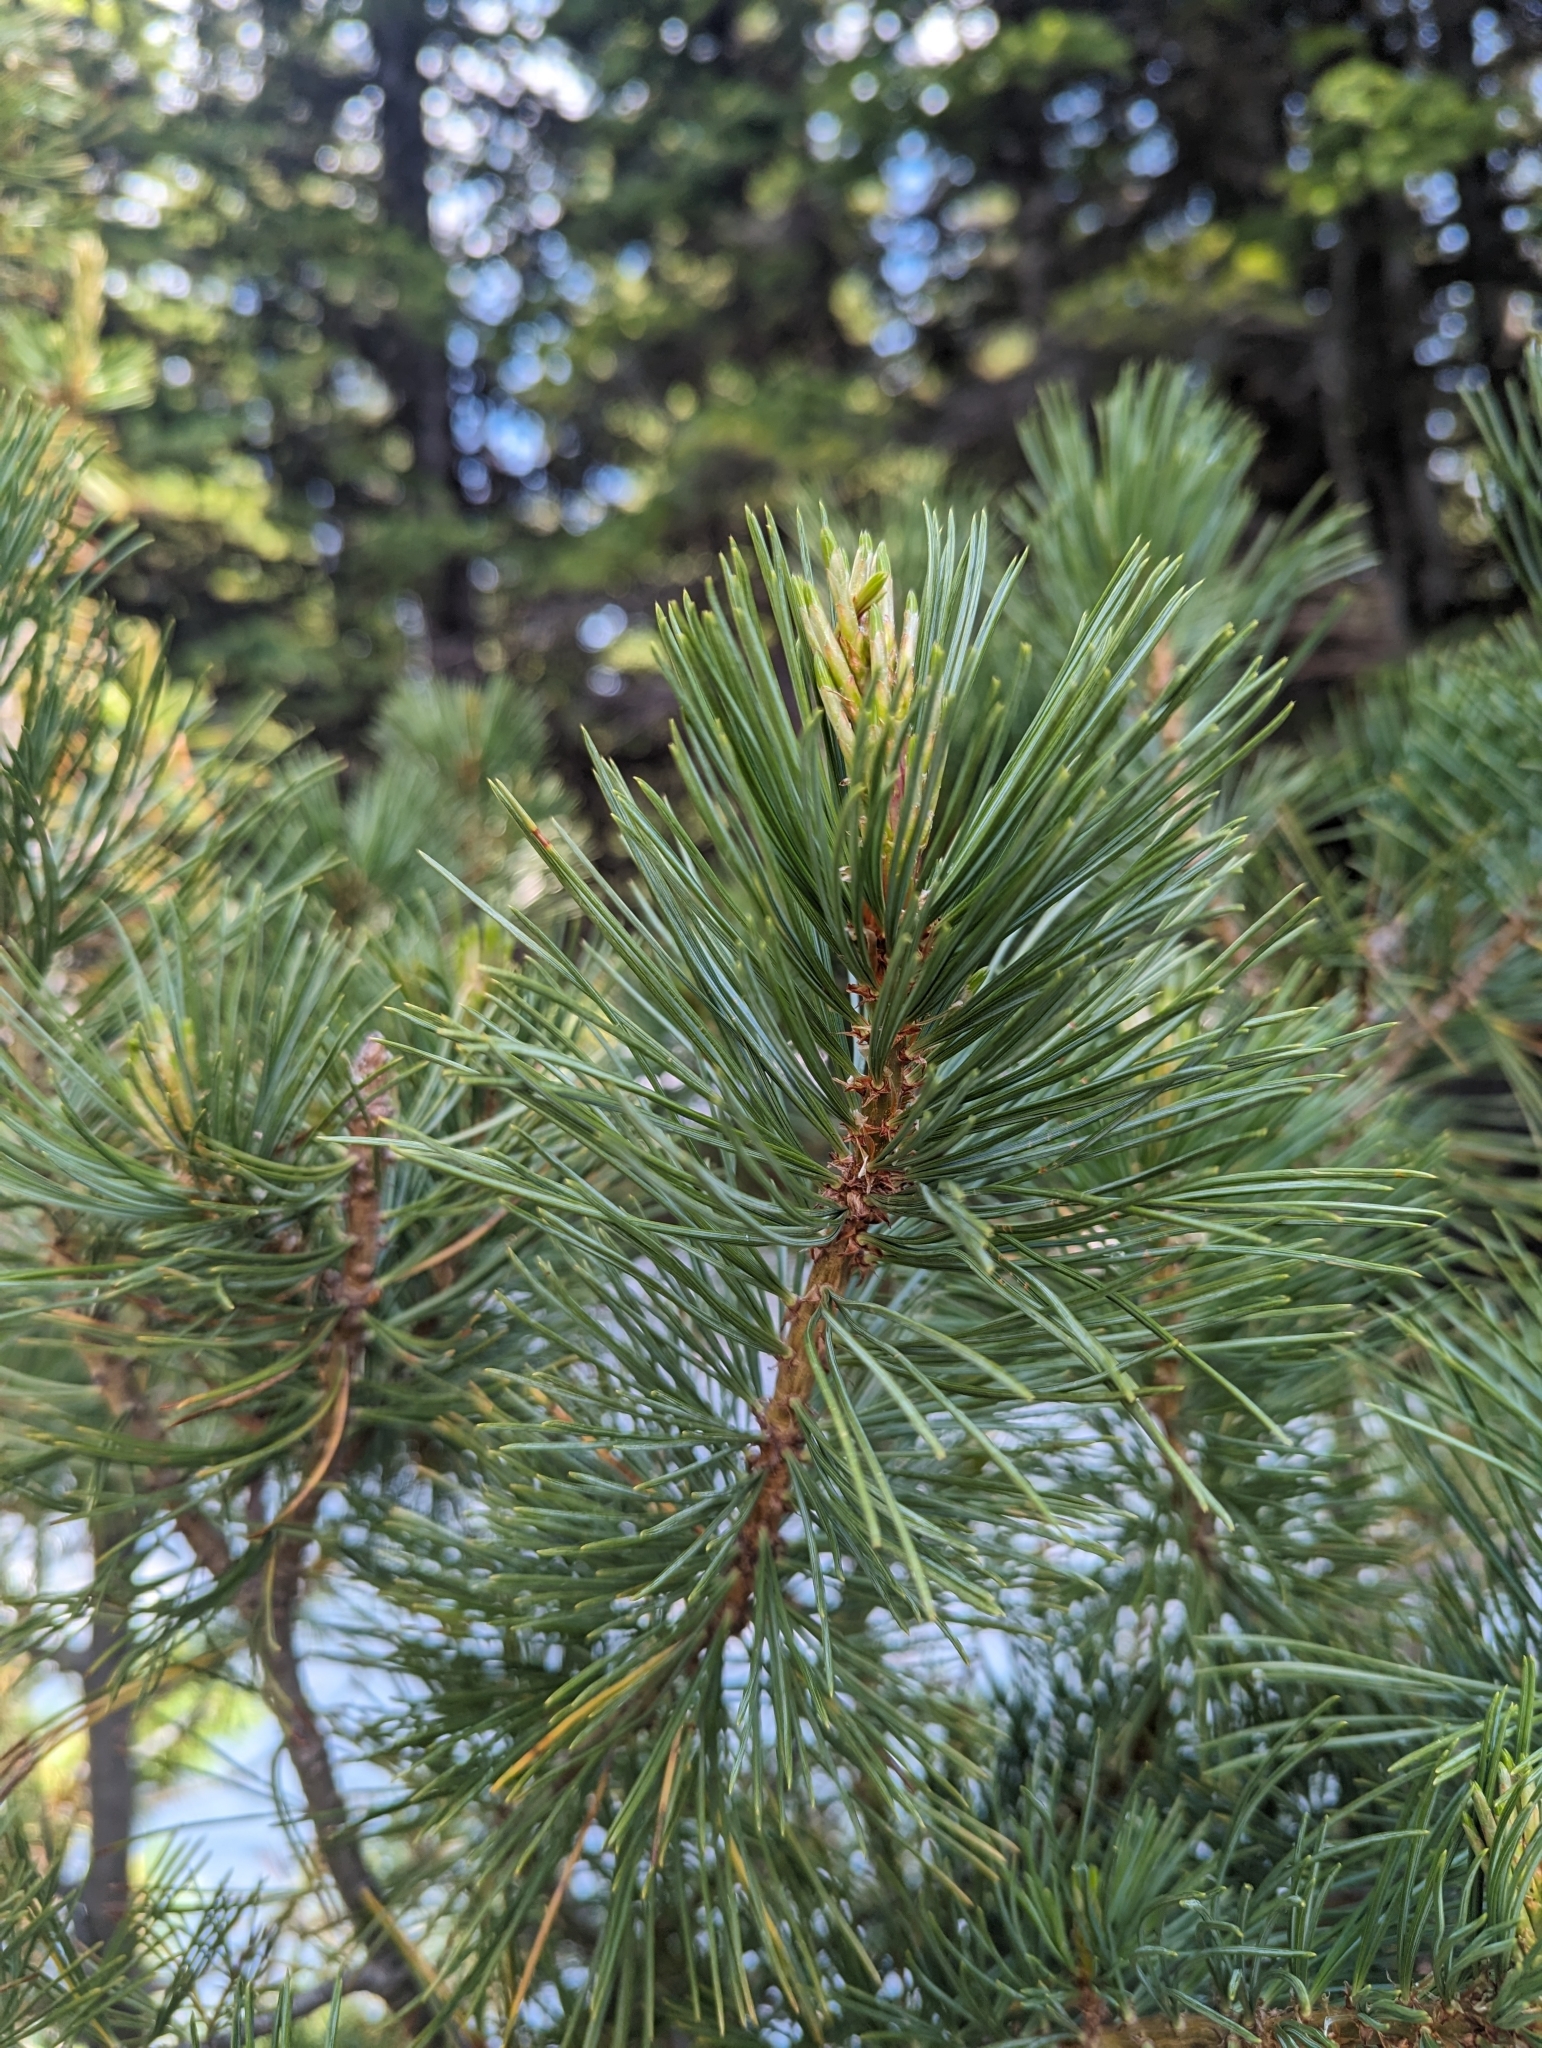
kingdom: Plantae
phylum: Tracheophyta
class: Pinopsida
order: Pinales
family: Pinaceae
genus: Pinus
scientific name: Pinus albicaulis
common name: Whitebark pine
